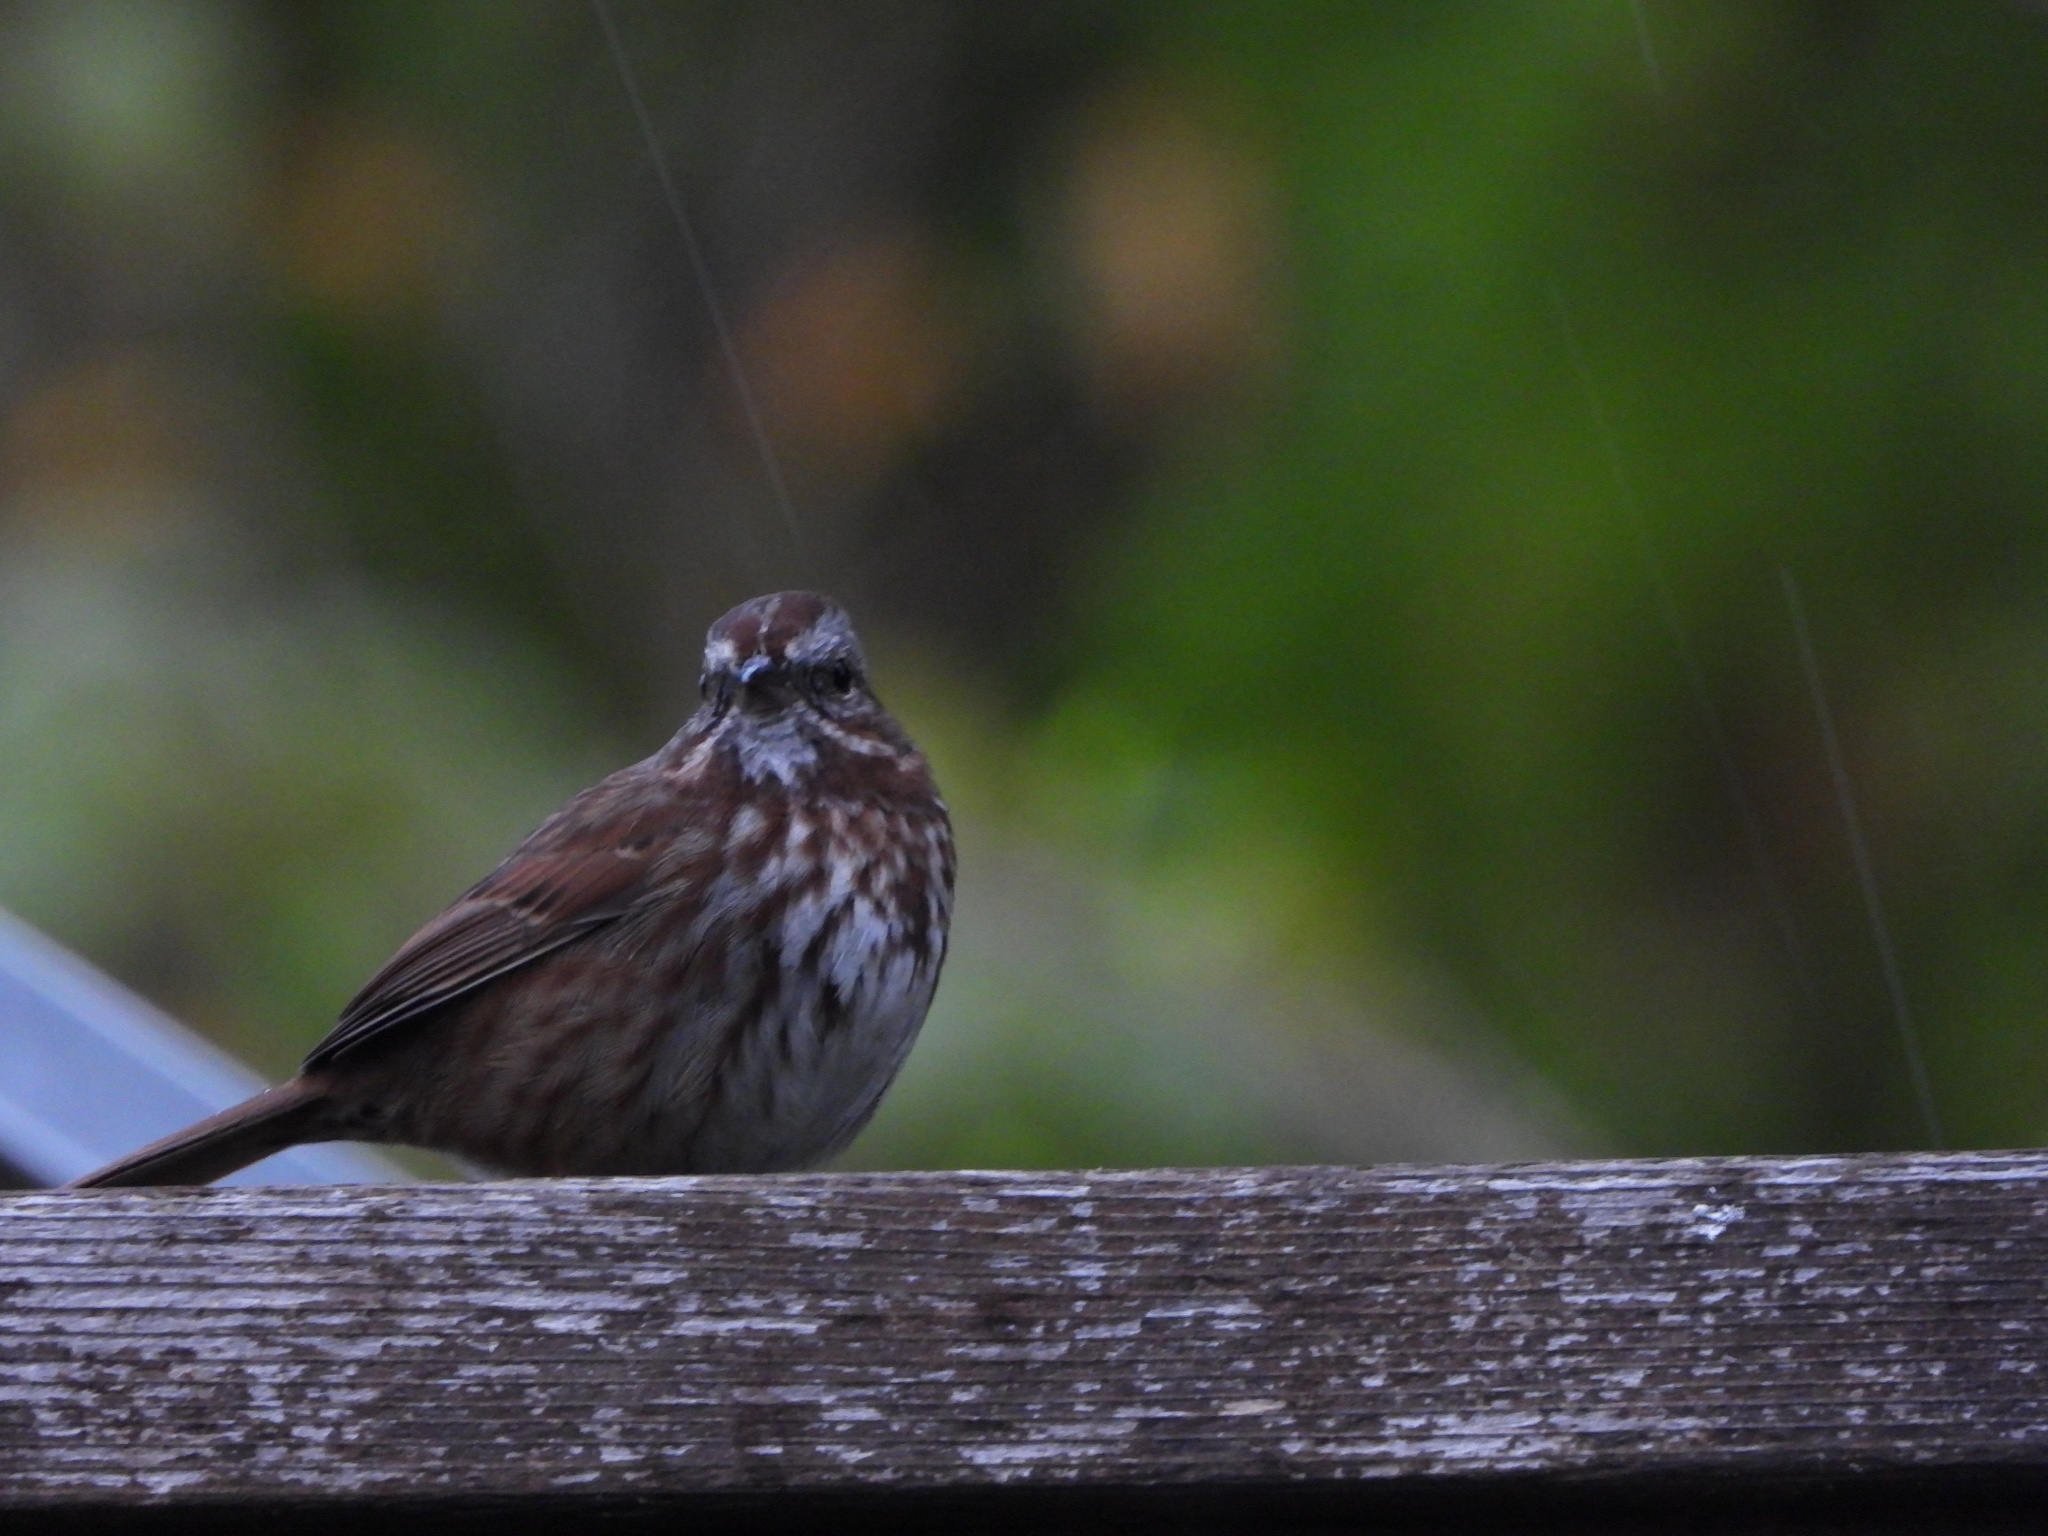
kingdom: Animalia
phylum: Chordata
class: Aves
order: Passeriformes
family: Passerellidae
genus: Melospiza
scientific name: Melospiza melodia
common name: Song sparrow
